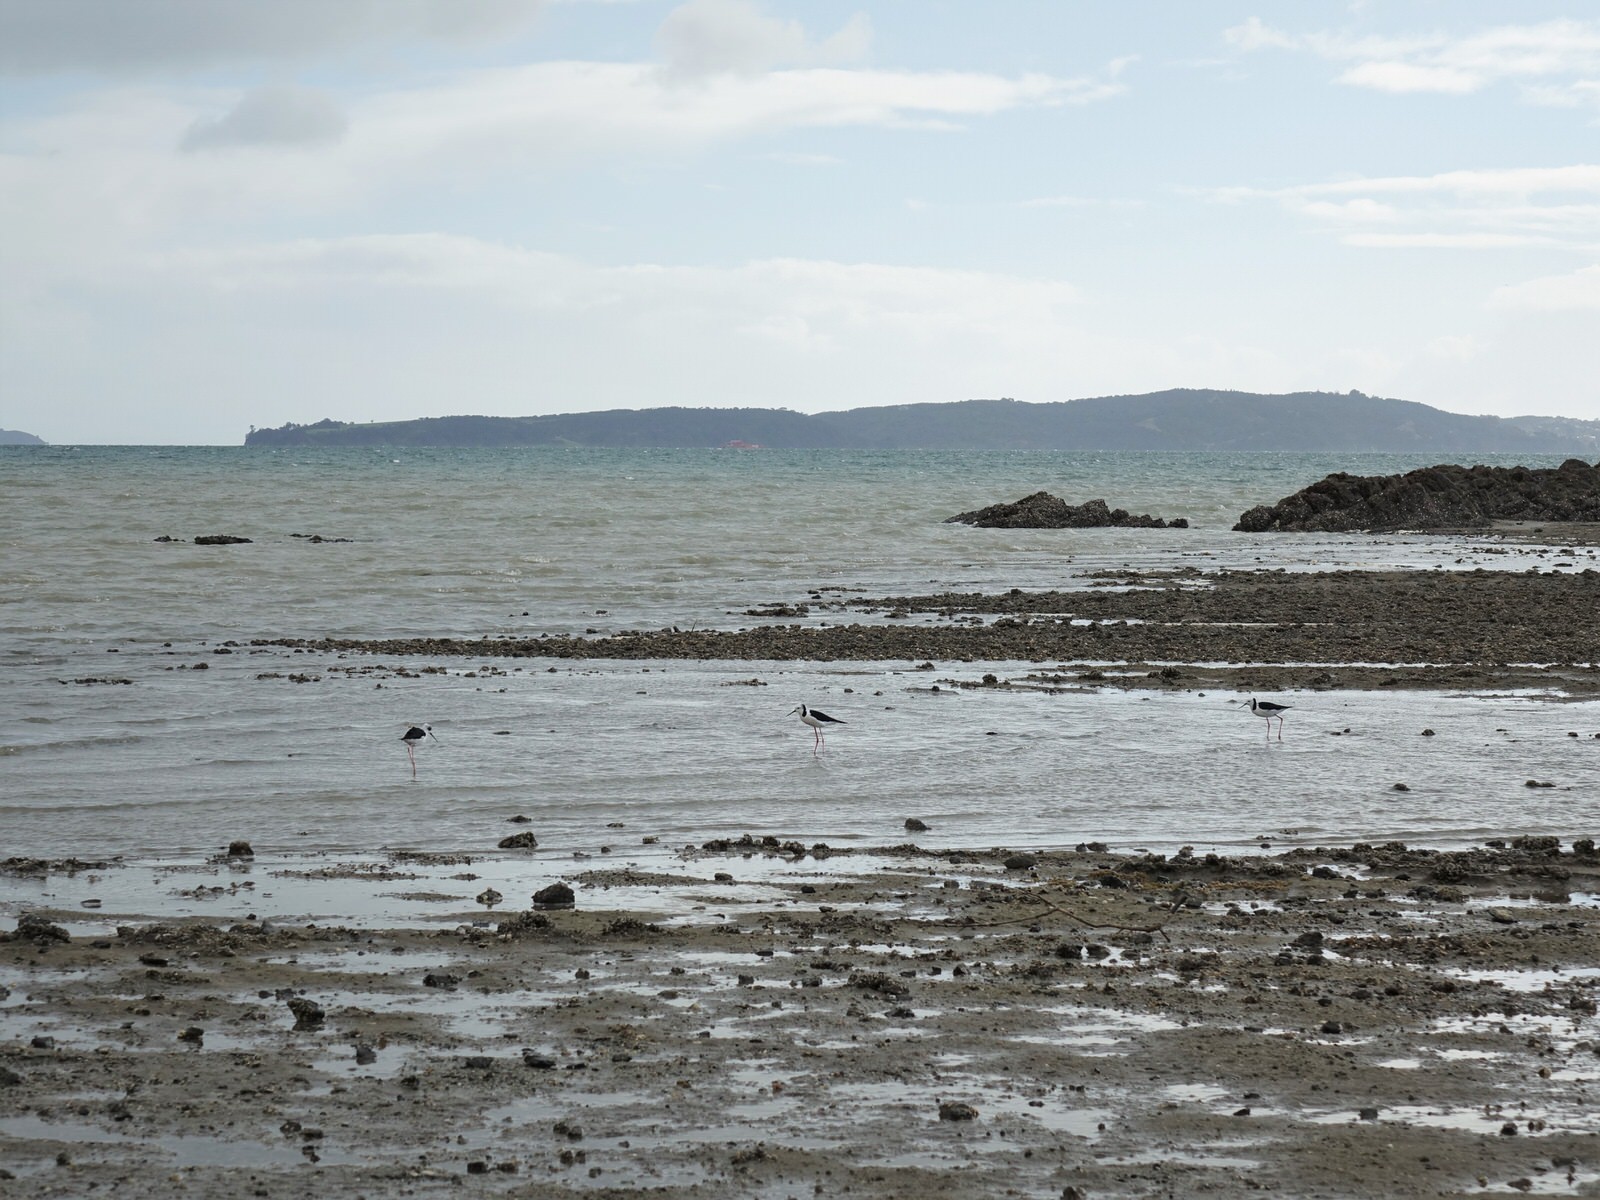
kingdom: Animalia
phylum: Chordata
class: Aves
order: Charadriiformes
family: Recurvirostridae
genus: Himantopus
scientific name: Himantopus leucocephalus
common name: White-headed stilt
